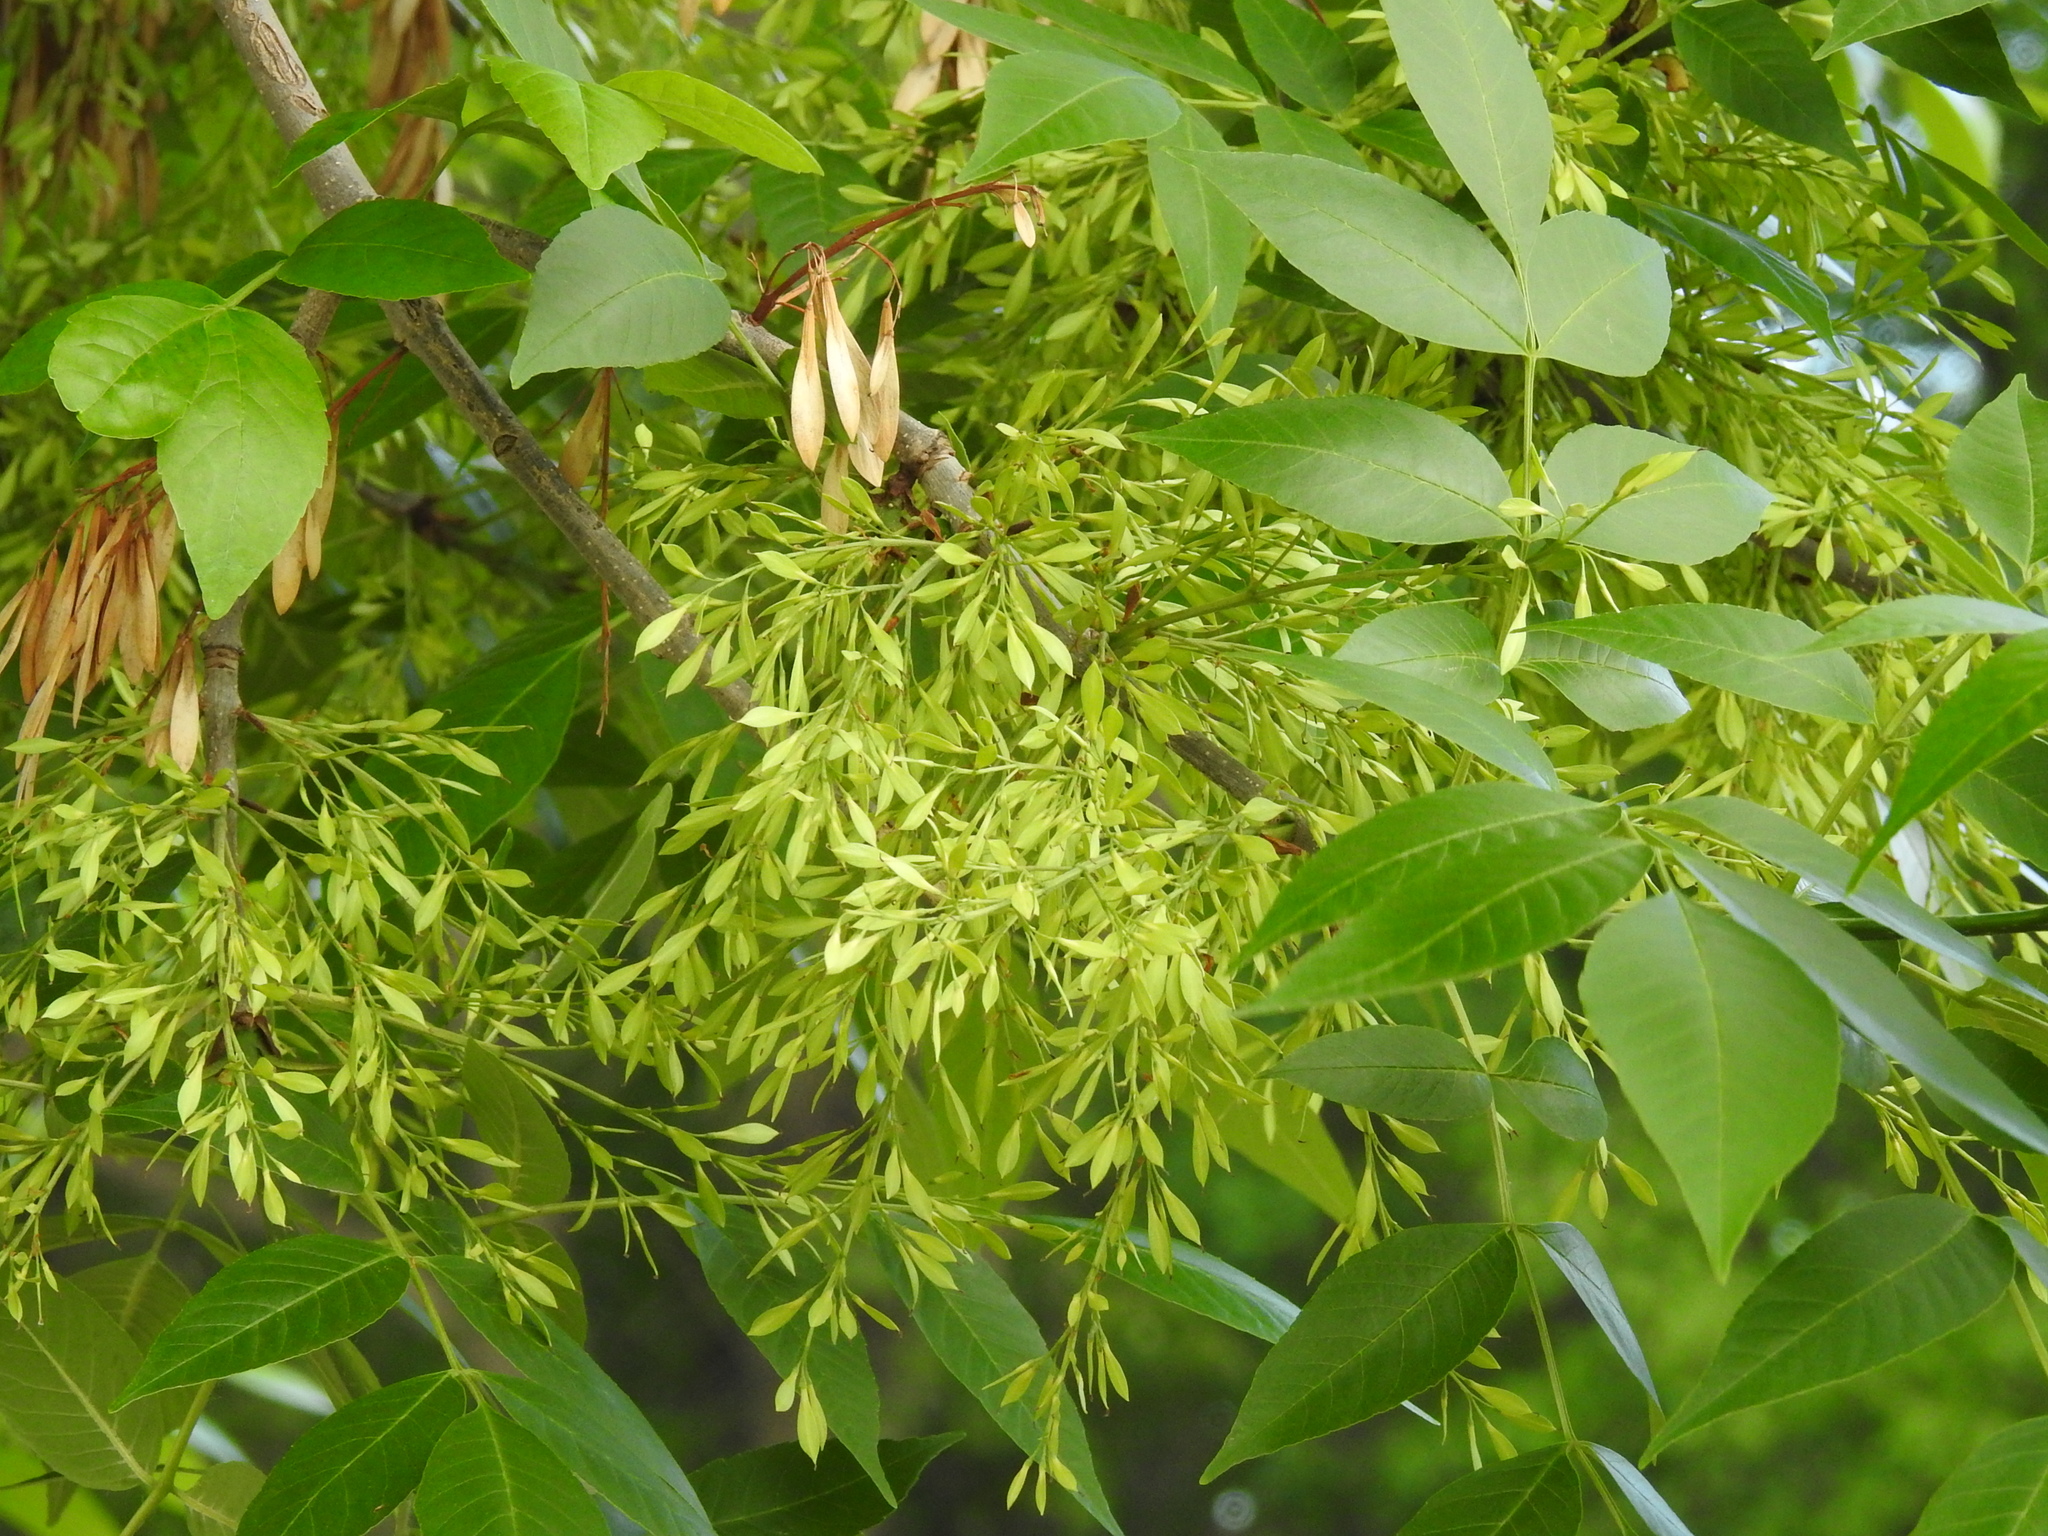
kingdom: Plantae
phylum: Tracheophyta
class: Magnoliopsida
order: Lamiales
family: Oleaceae
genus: Fraxinus
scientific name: Fraxinus pennsylvanica
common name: Green ash
